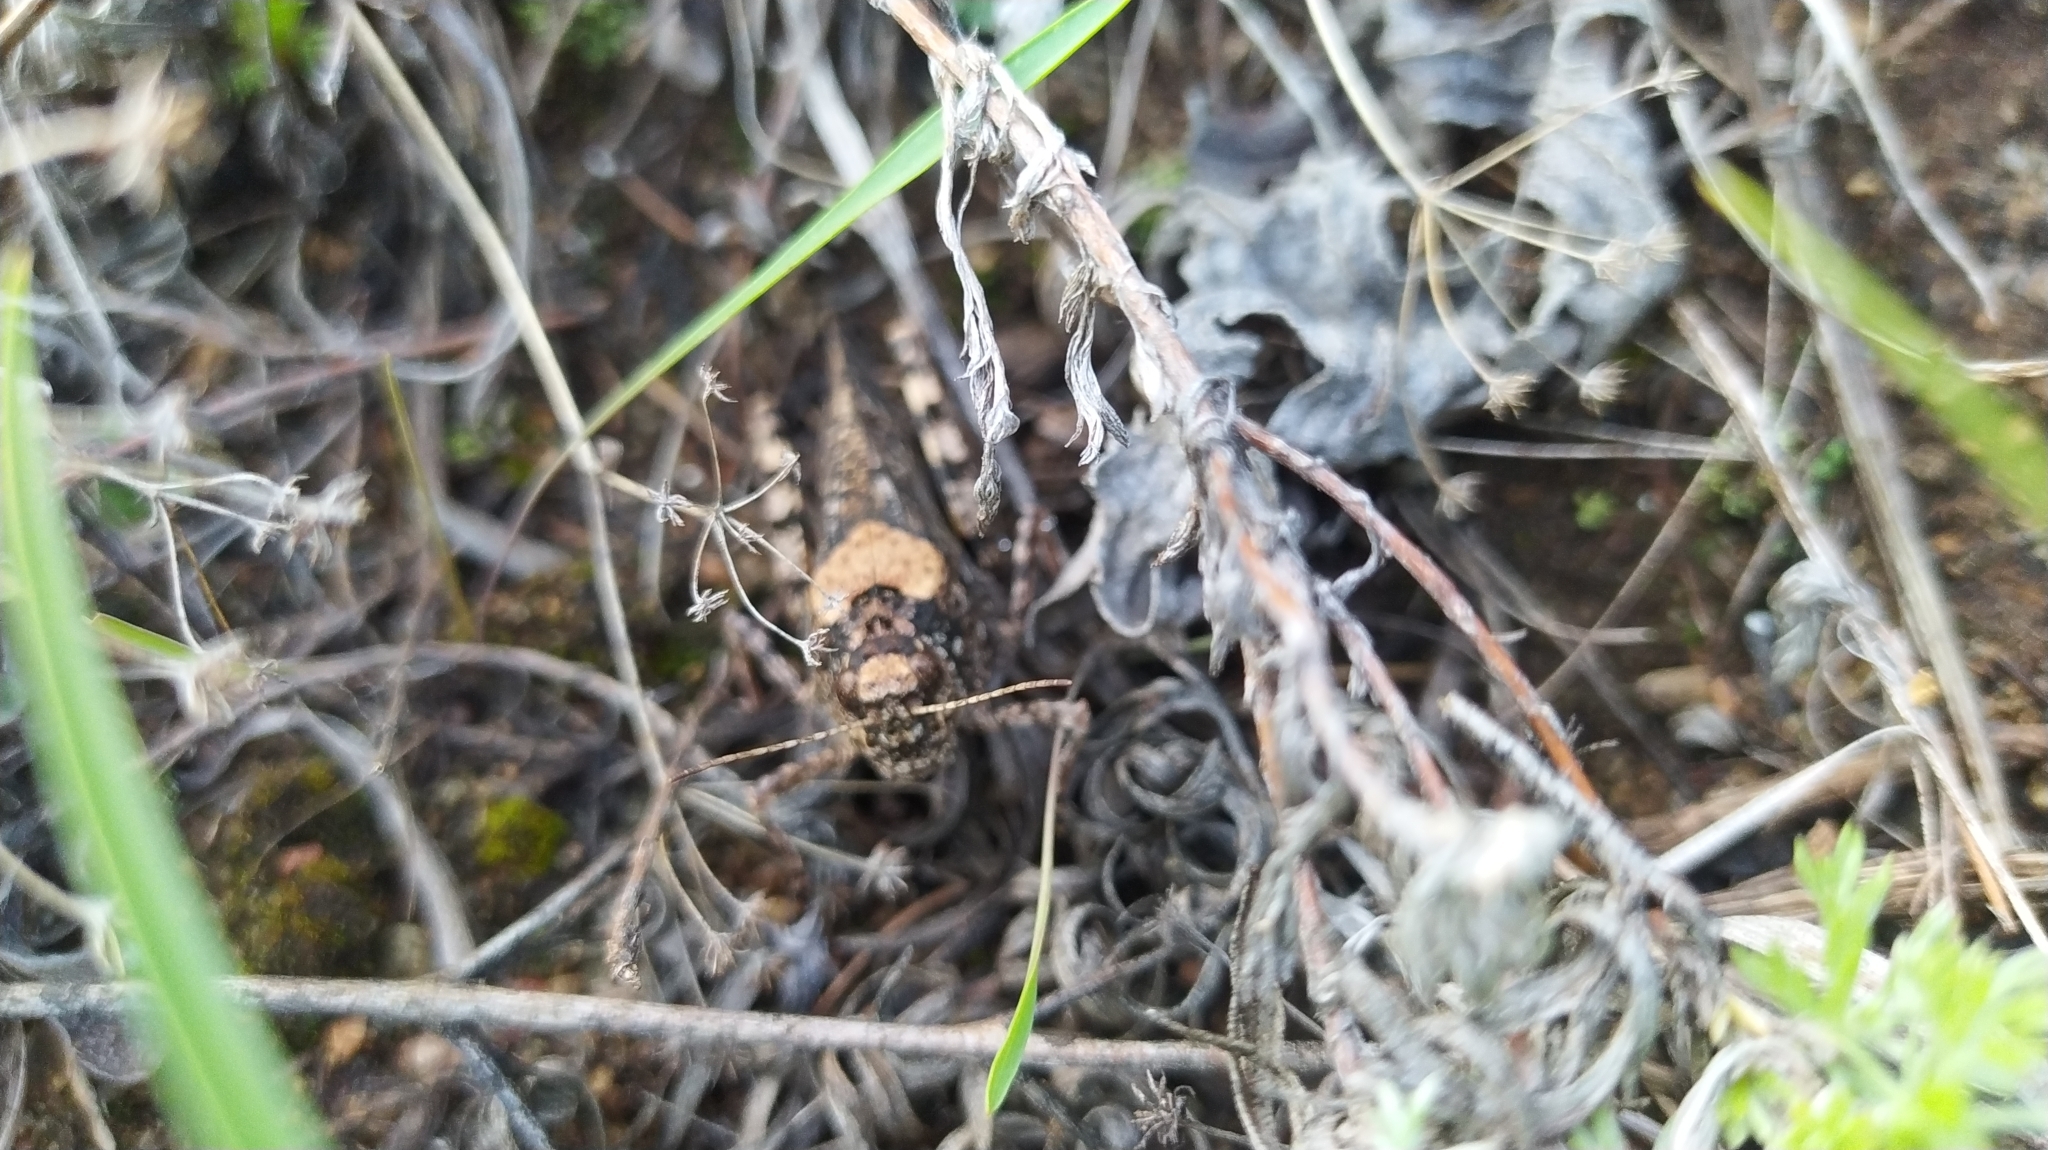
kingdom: Animalia
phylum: Arthropoda
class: Insecta
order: Orthoptera
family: Acrididae
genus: Angaracris
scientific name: Angaracris barabensis
